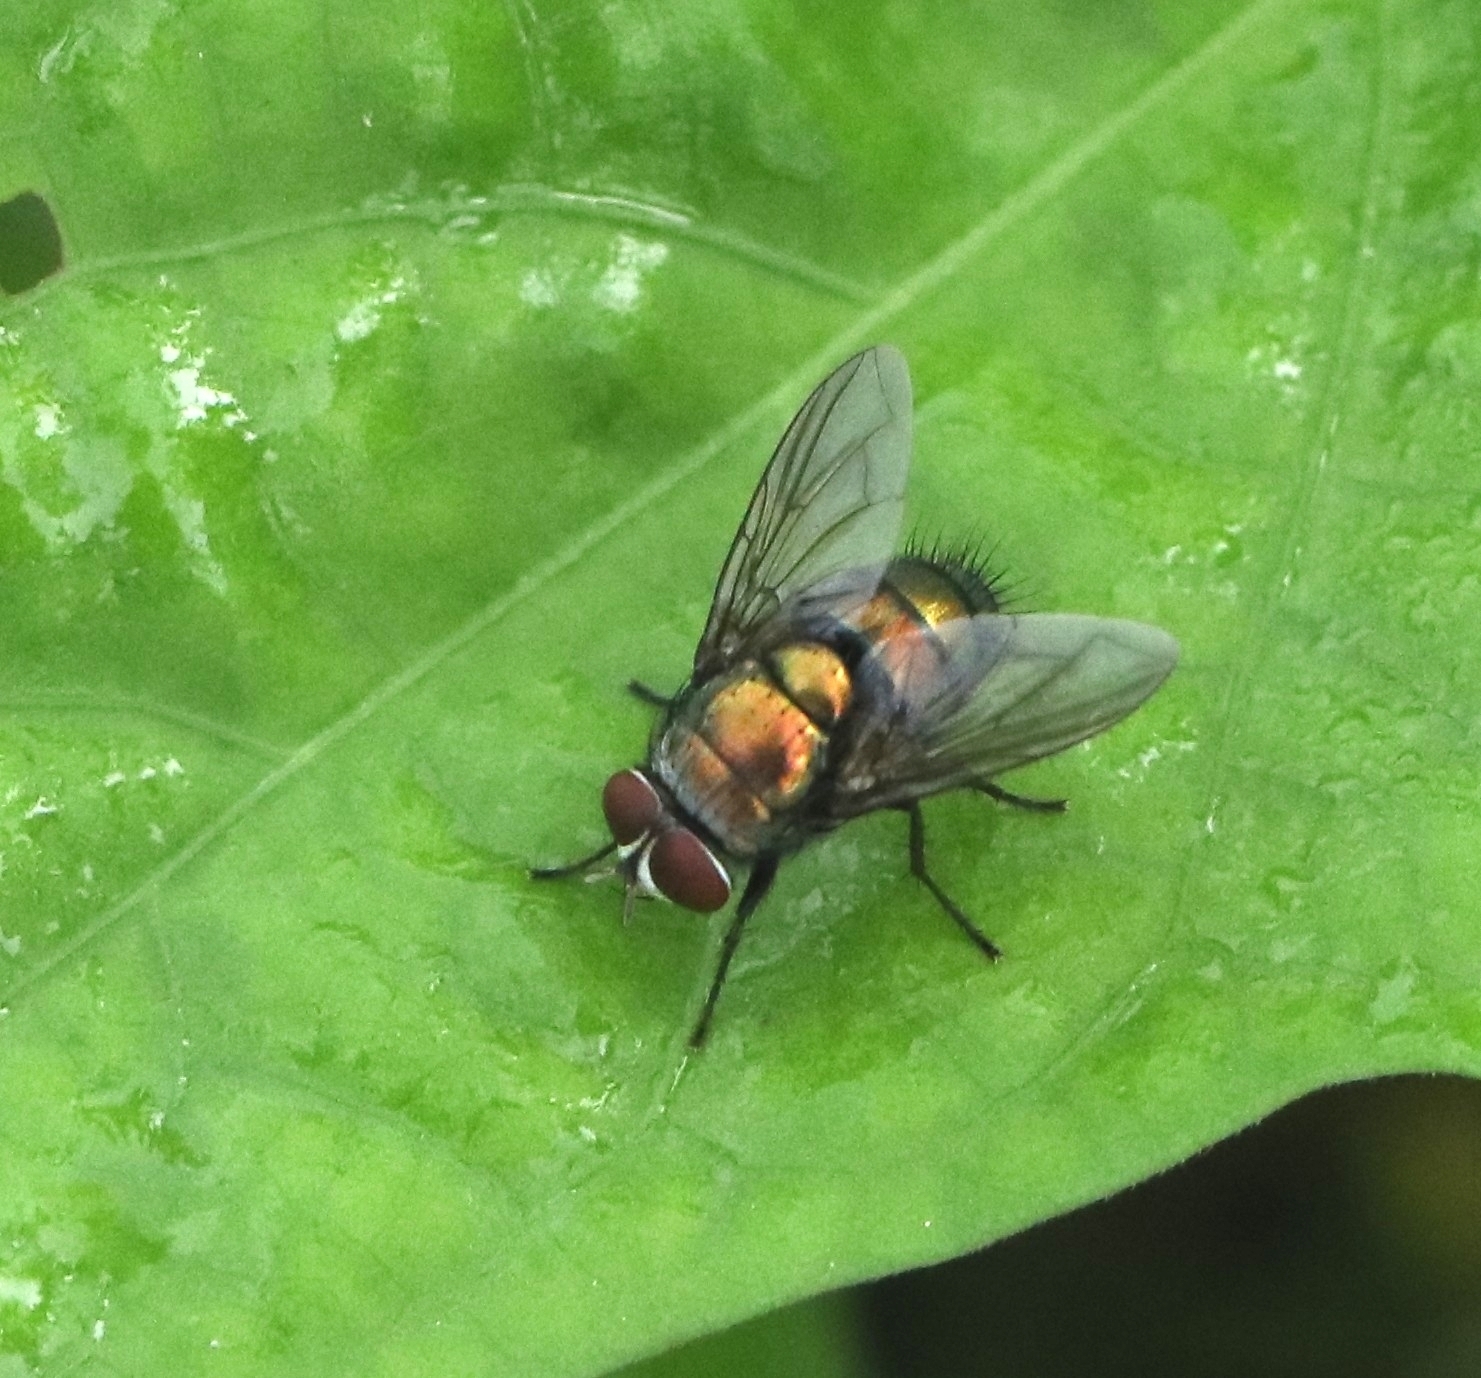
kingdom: Animalia
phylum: Arthropoda
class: Insecta
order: Diptera
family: Calliphoridae
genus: Hemipyrellia
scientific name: Hemipyrellia ligurriens
